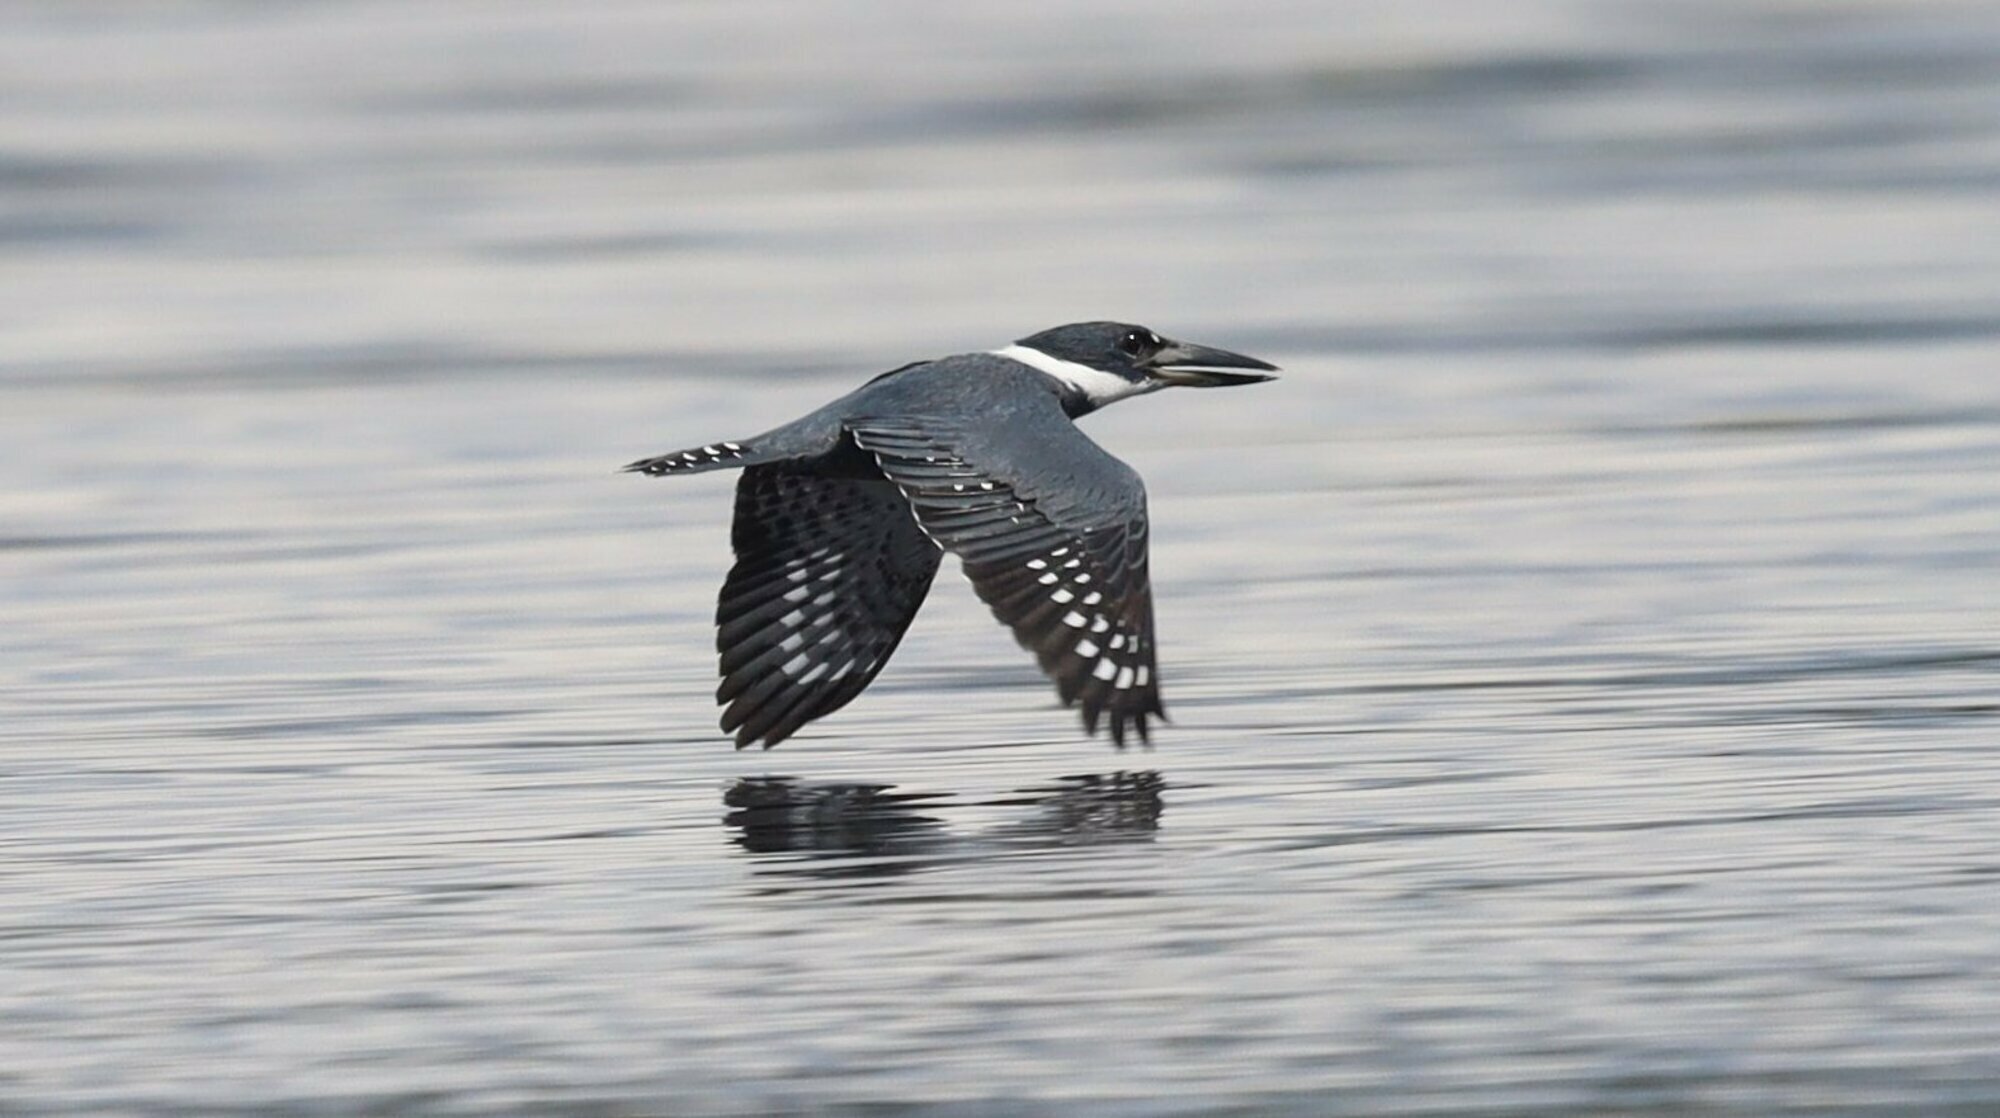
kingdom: Animalia
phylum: Chordata
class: Aves
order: Coraciiformes
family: Alcedinidae
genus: Megaceryle
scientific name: Megaceryle torquata
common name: Ringed kingfisher
